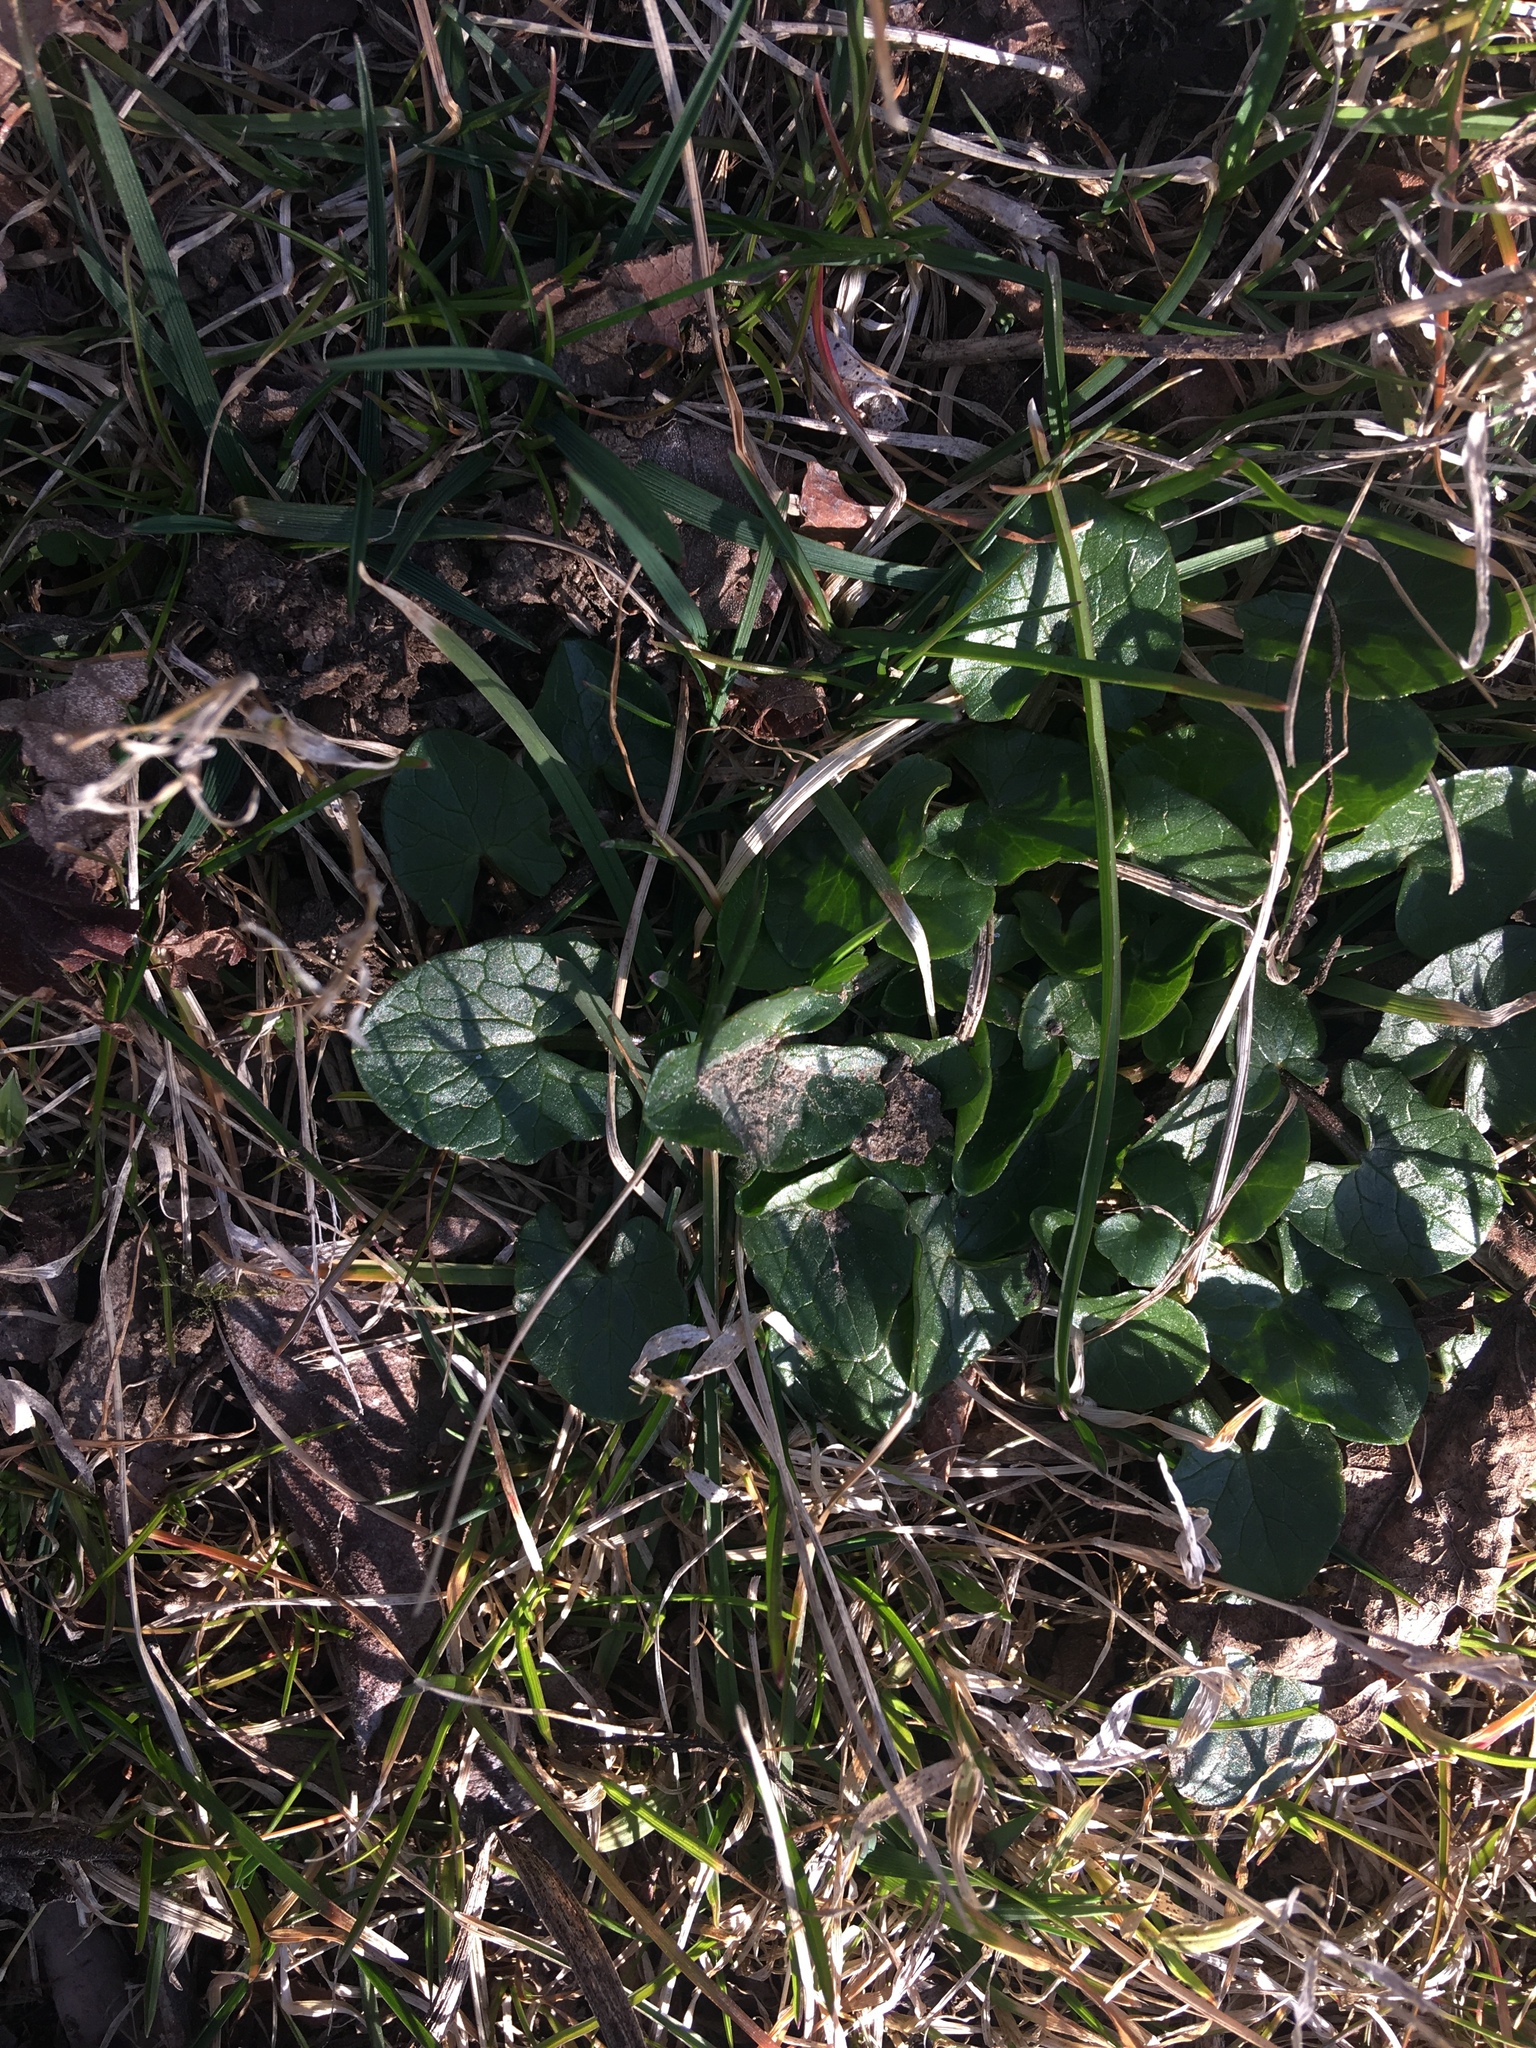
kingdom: Plantae
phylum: Tracheophyta
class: Magnoliopsida
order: Ranunculales
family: Ranunculaceae
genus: Ficaria
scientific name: Ficaria verna
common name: Lesser celandine
